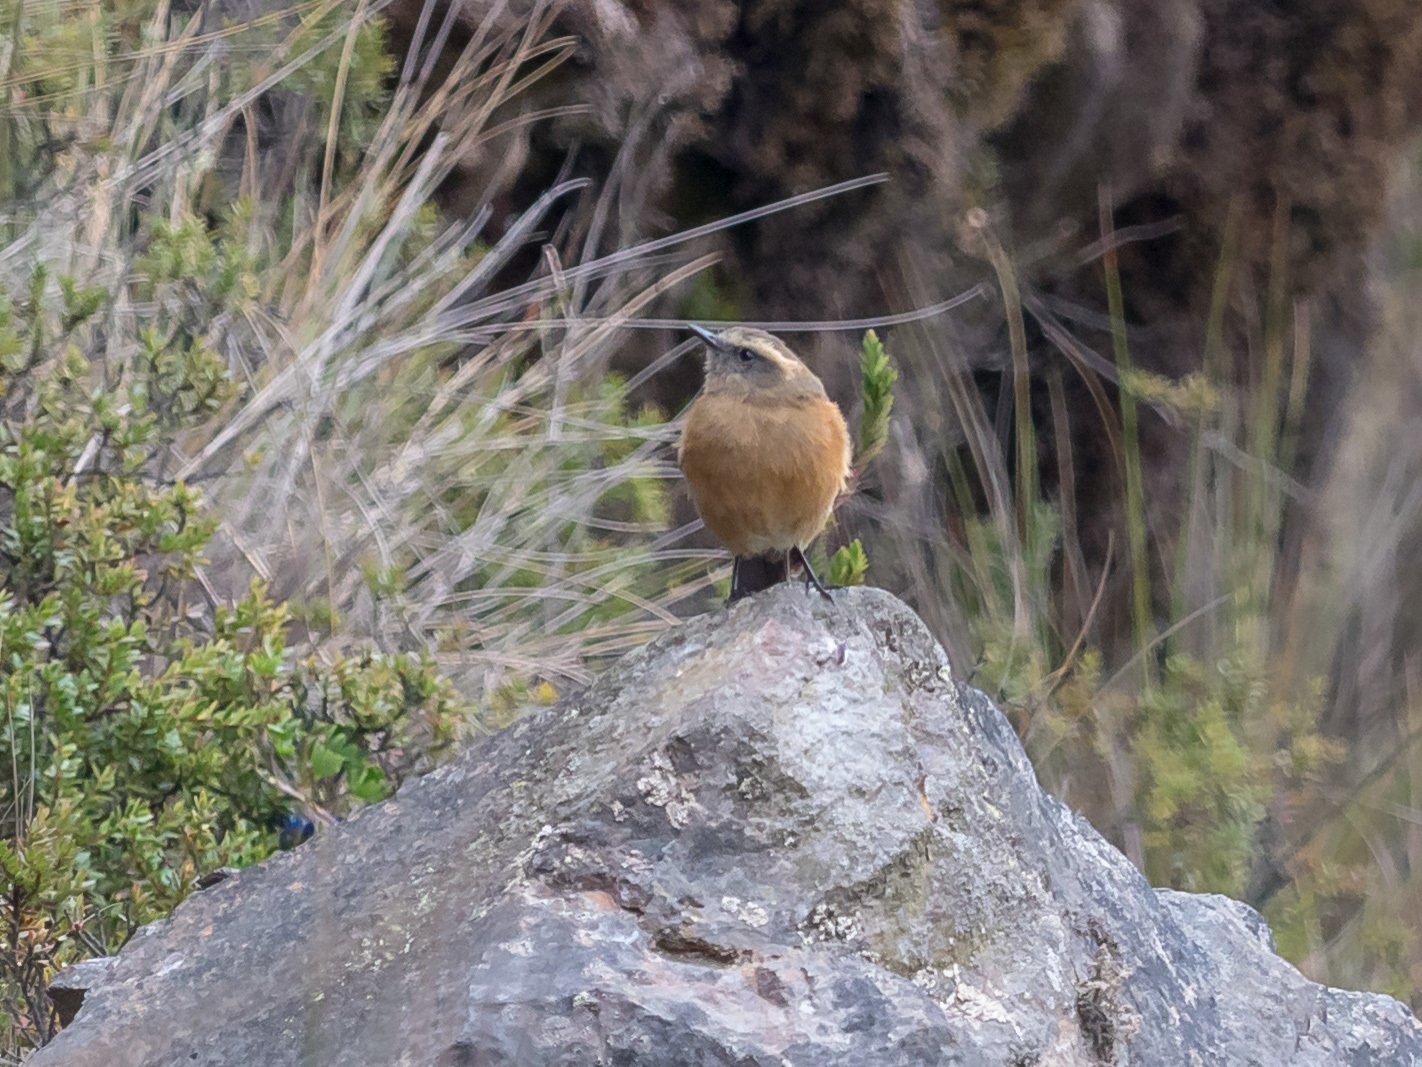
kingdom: Animalia
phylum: Chordata
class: Aves
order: Passeriformes
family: Tyrannidae
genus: Ochthoeca
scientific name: Ochthoeca fumicolor
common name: Brown-backed chat-tyrant
